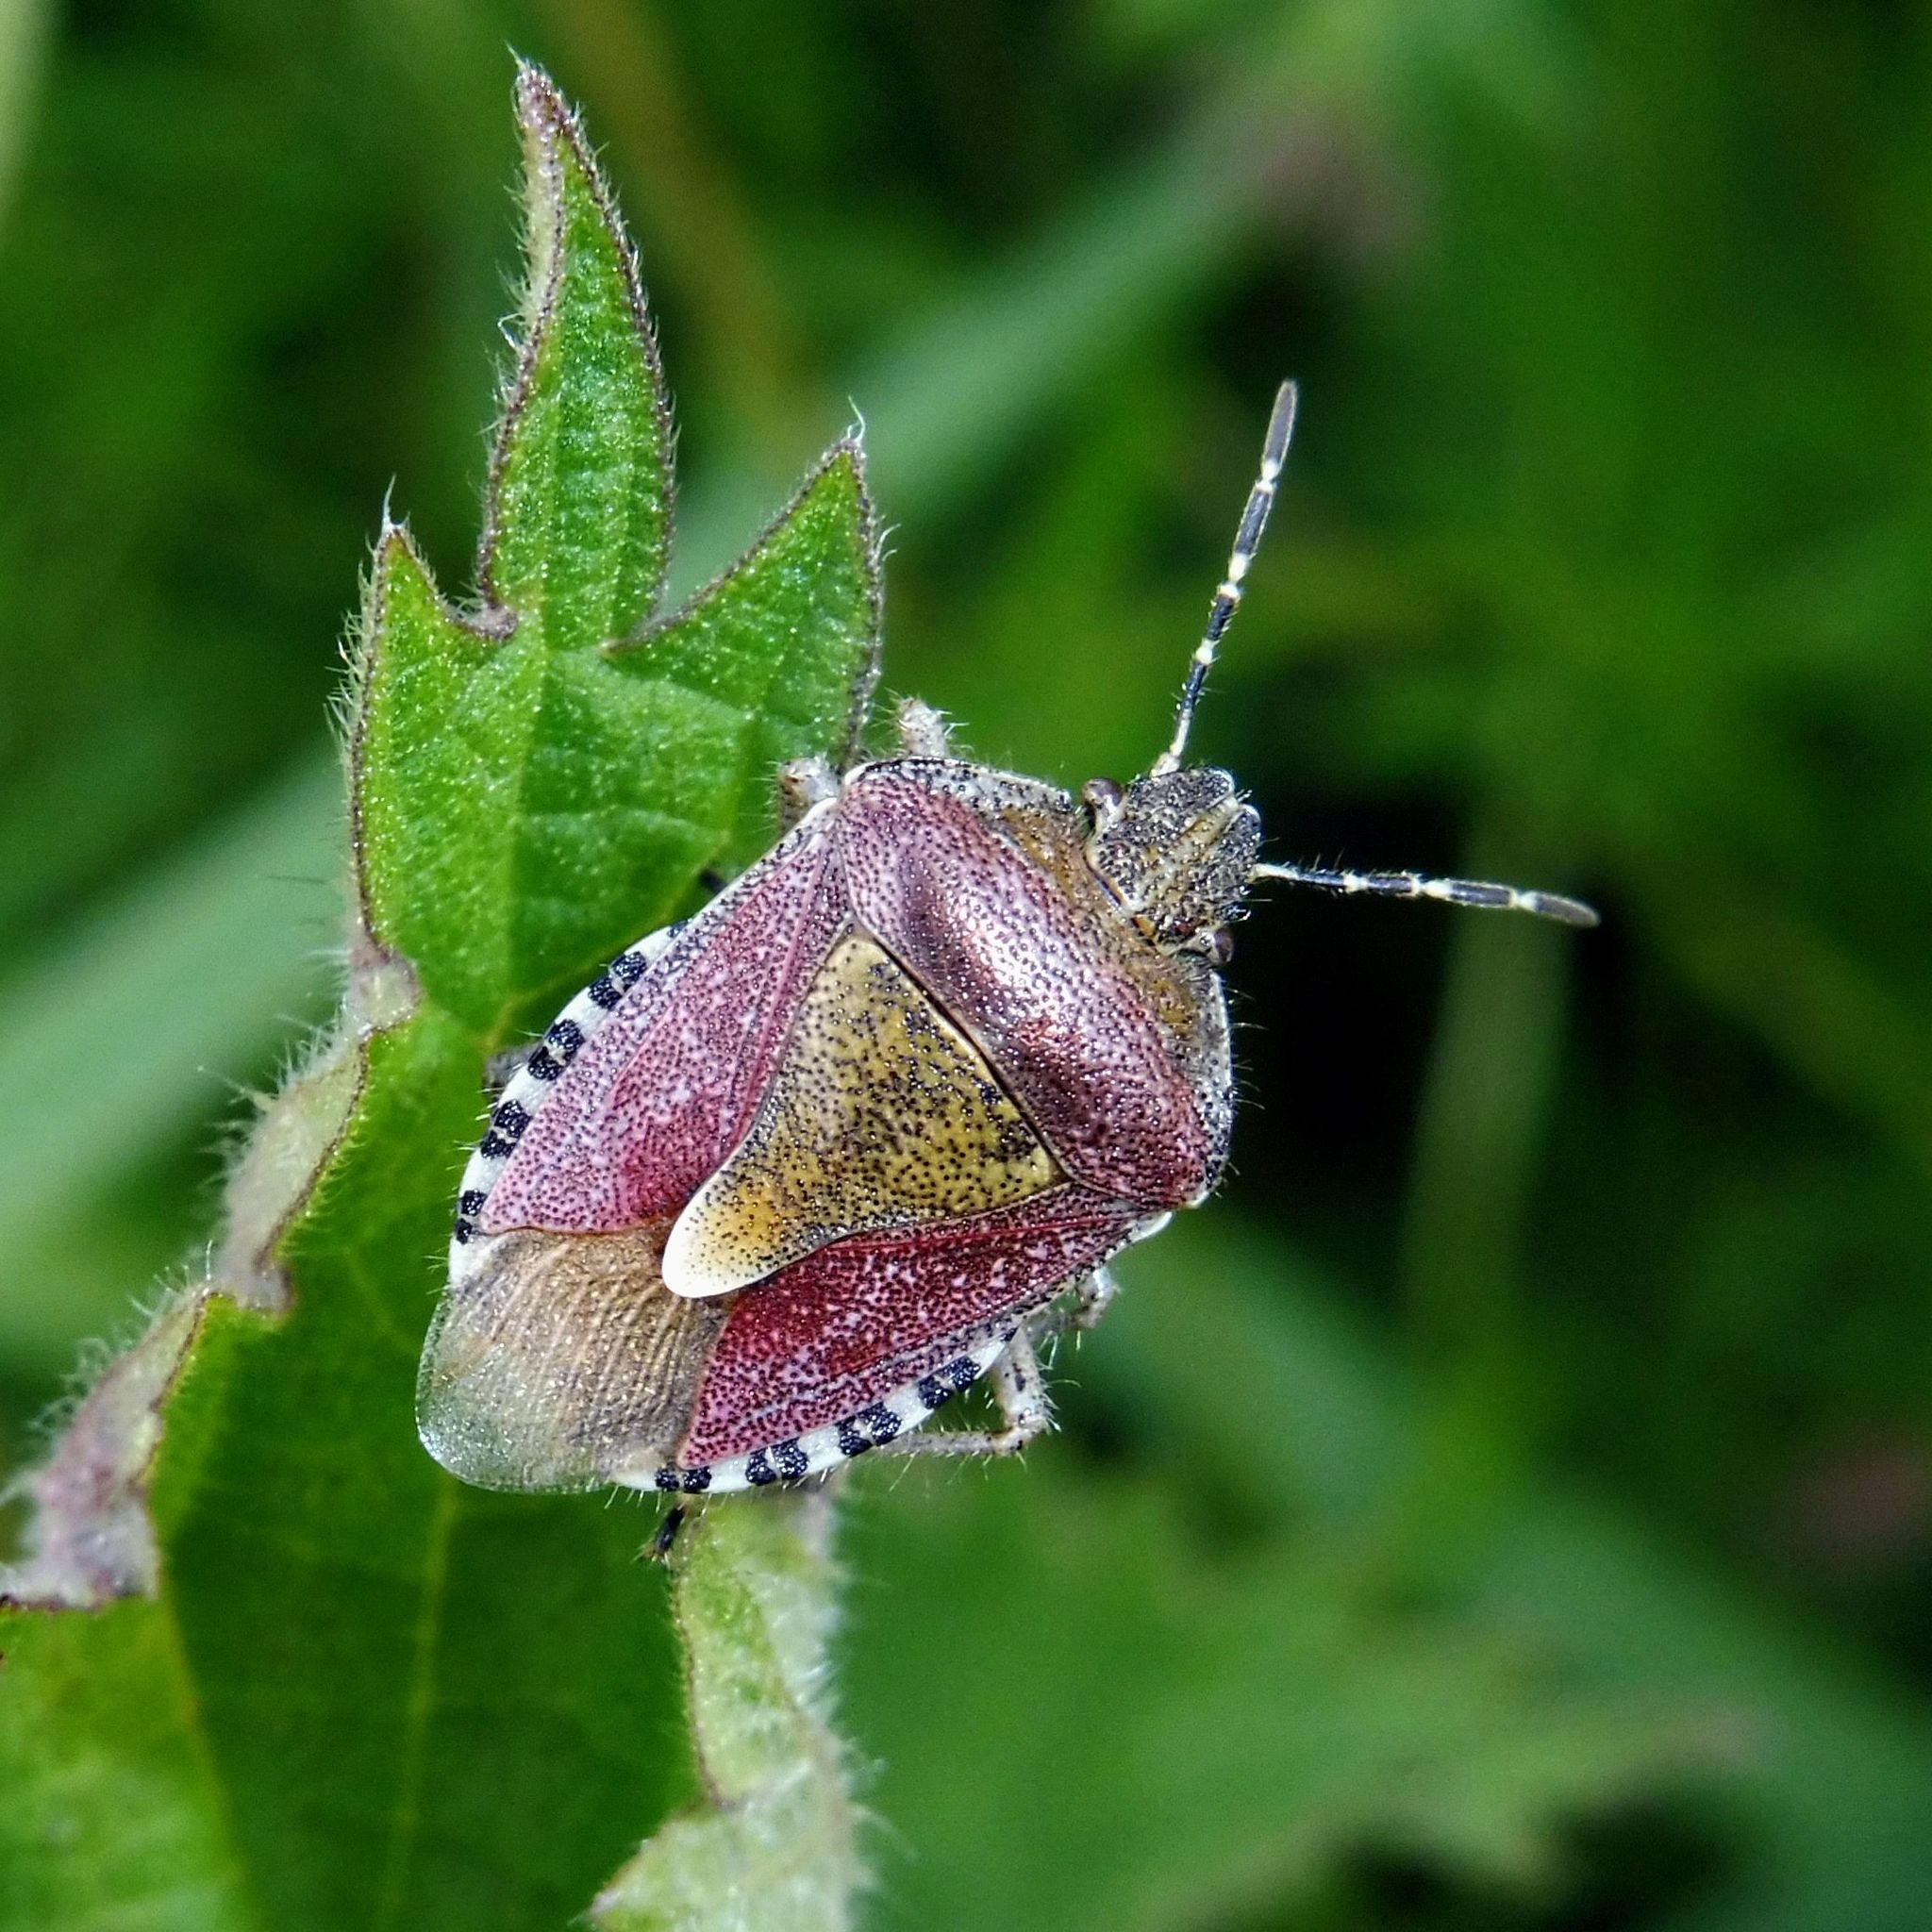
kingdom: Animalia
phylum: Arthropoda
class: Insecta
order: Hemiptera
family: Pentatomidae
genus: Dolycoris
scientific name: Dolycoris baccarum
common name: Sloe bug
